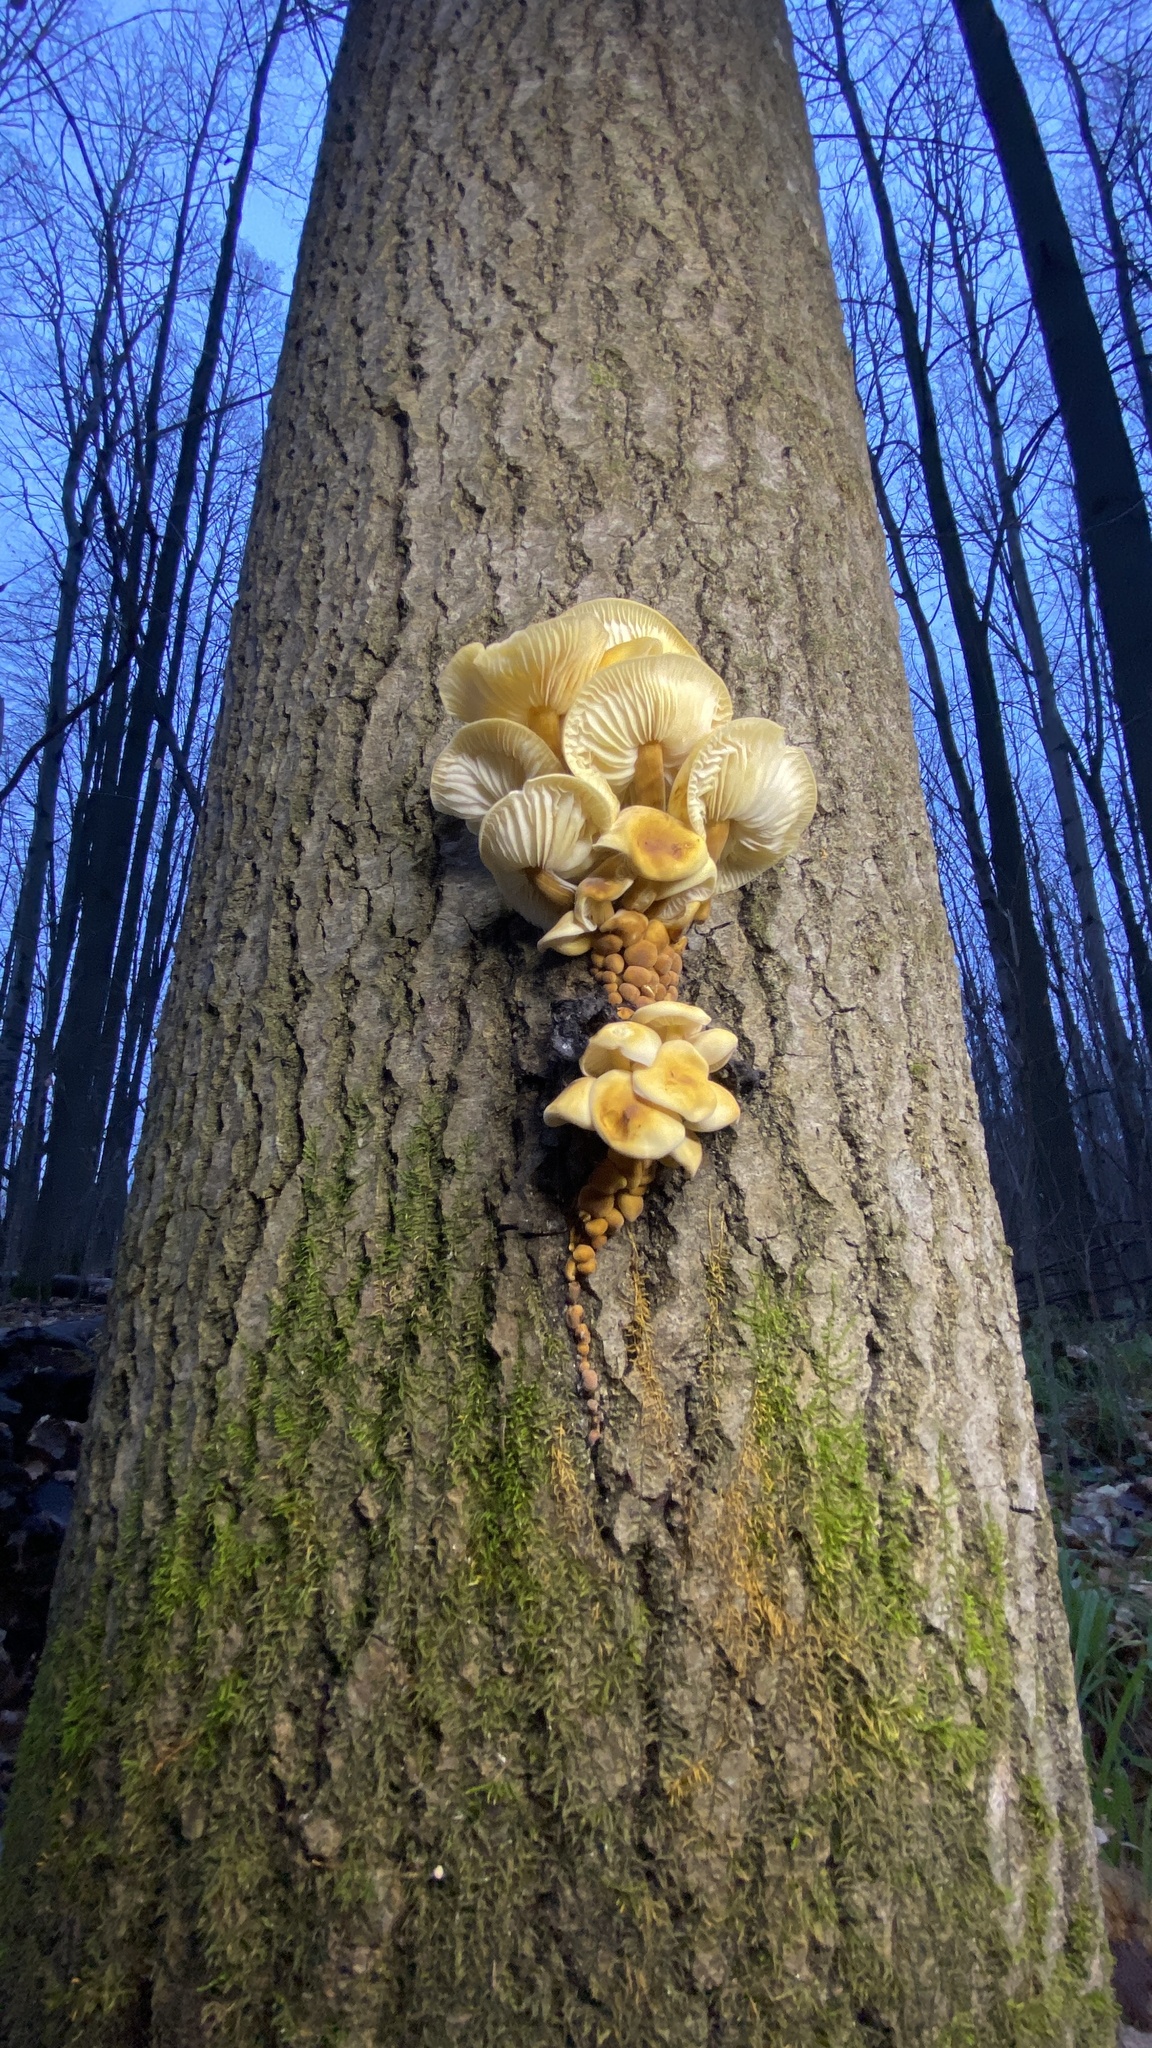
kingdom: Fungi
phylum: Basidiomycota
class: Agaricomycetes
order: Agaricales
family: Physalacriaceae
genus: Flammulina
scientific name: Flammulina
